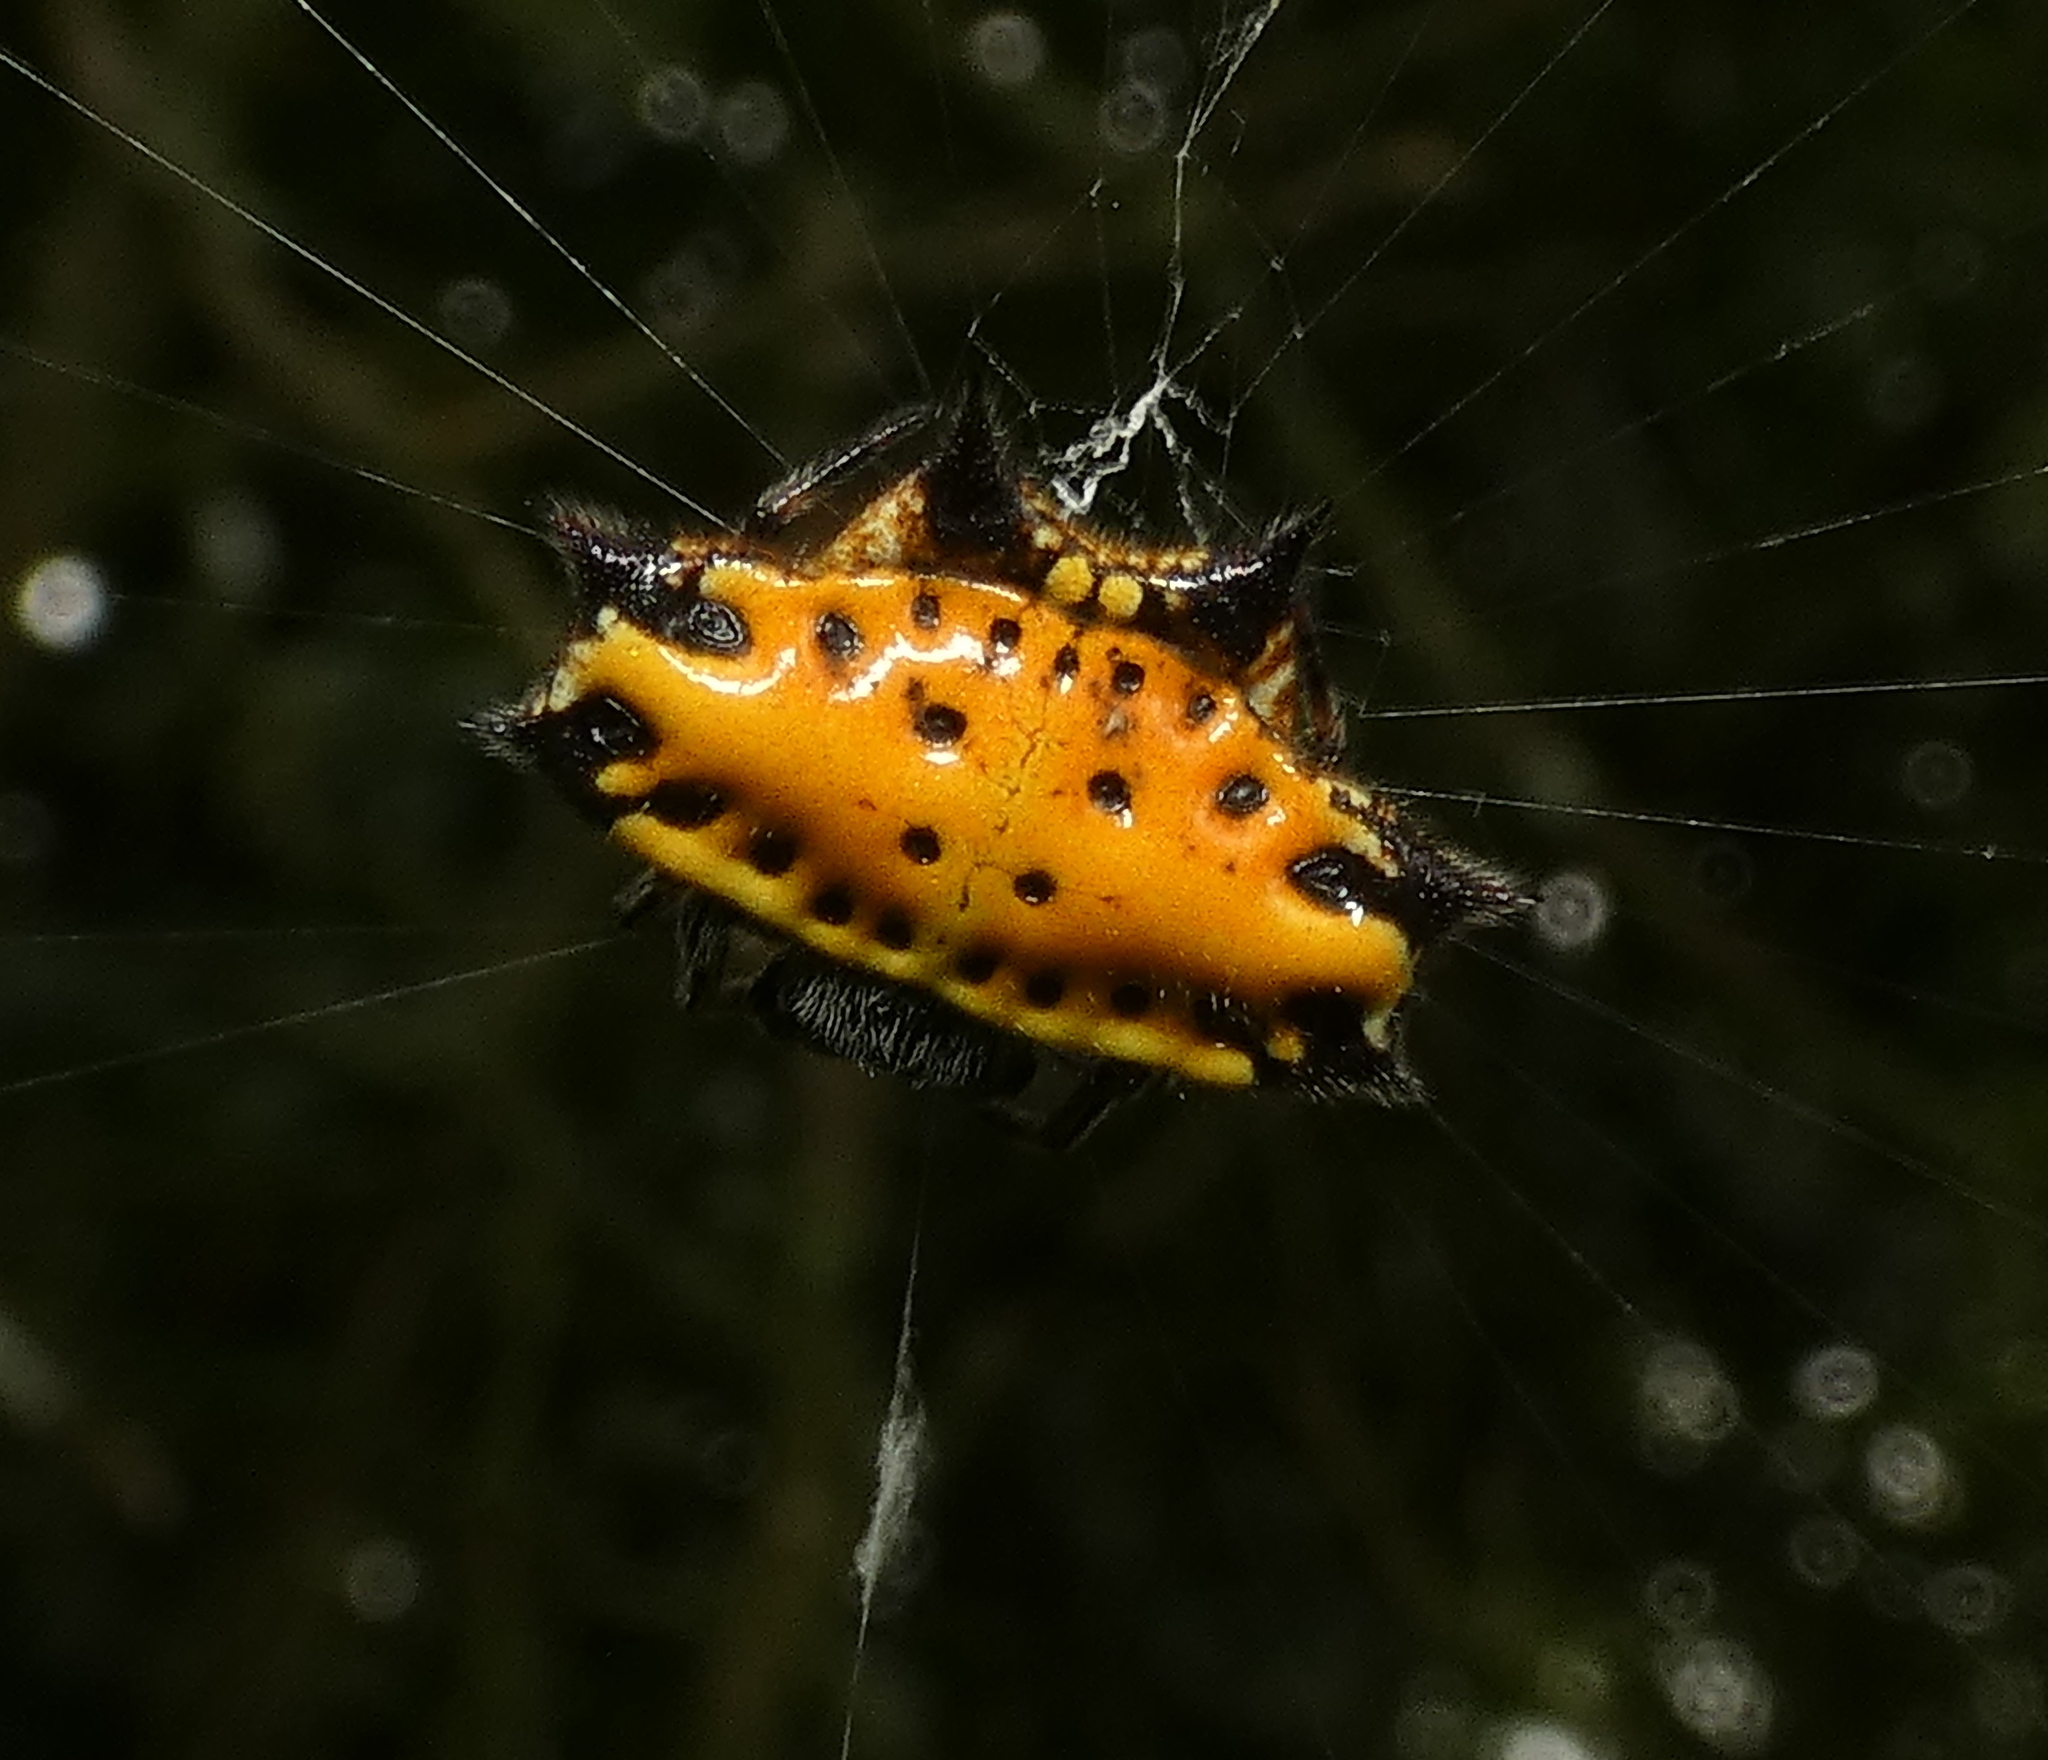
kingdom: Animalia
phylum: Arthropoda
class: Arachnida
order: Araneae
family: Araneidae
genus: Gasteracantha
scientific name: Gasteracantha cancriformis
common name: Orb weavers
